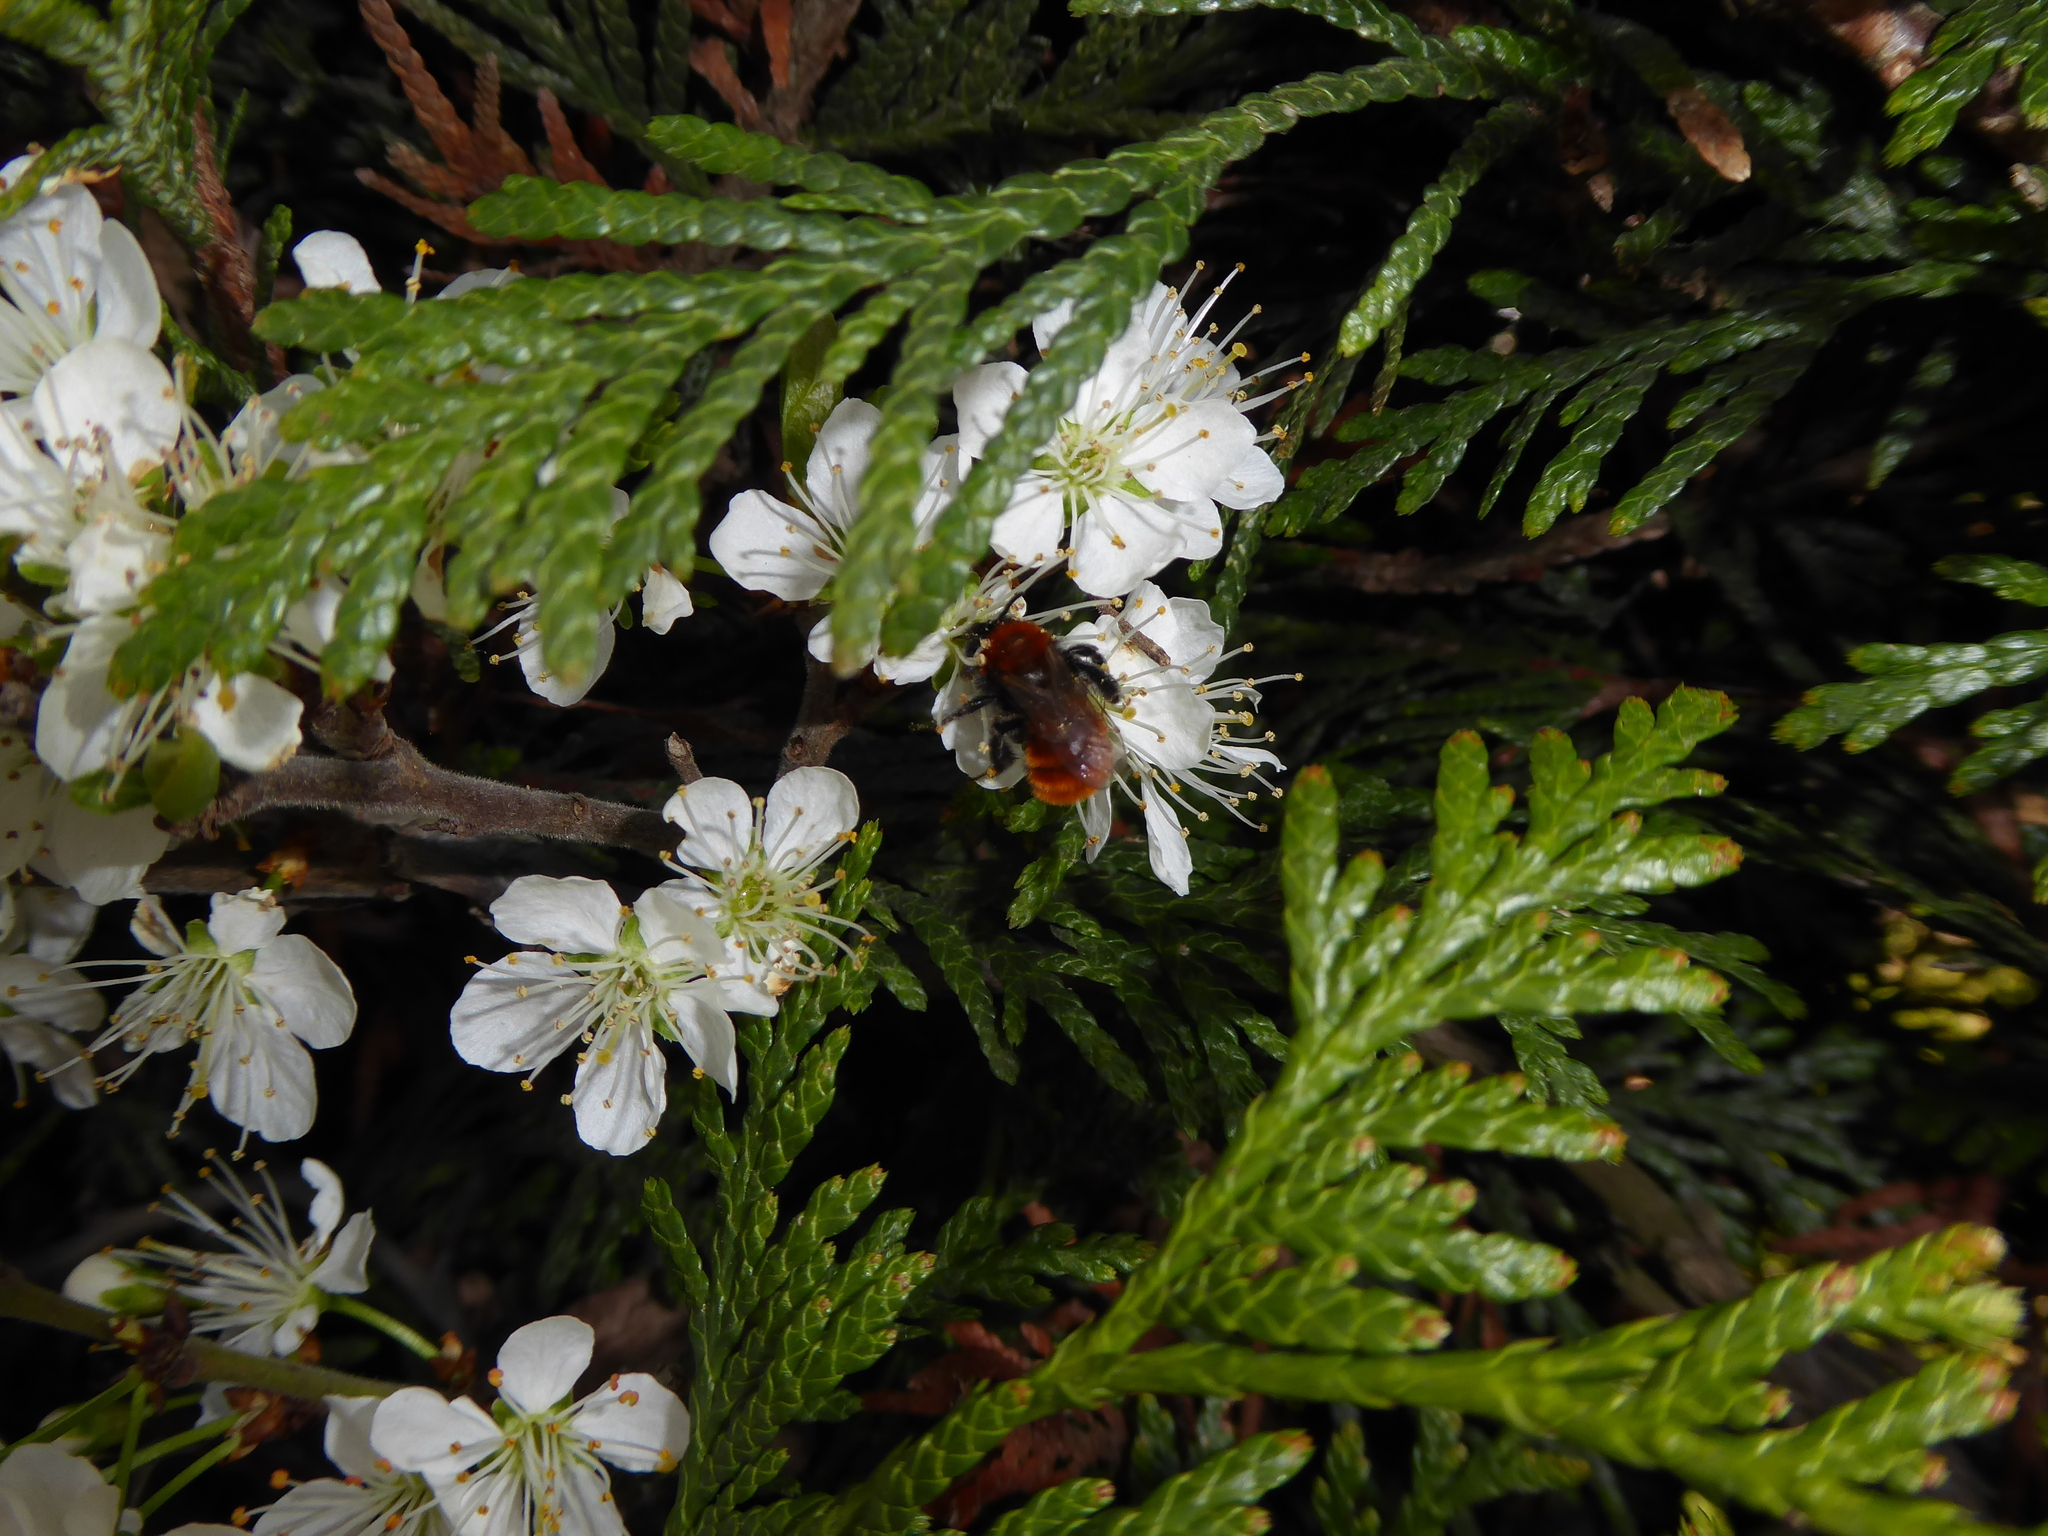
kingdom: Animalia
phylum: Arthropoda
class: Insecta
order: Hymenoptera
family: Andrenidae
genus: Andrena
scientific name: Andrena fulva
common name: Tawny mining bee
